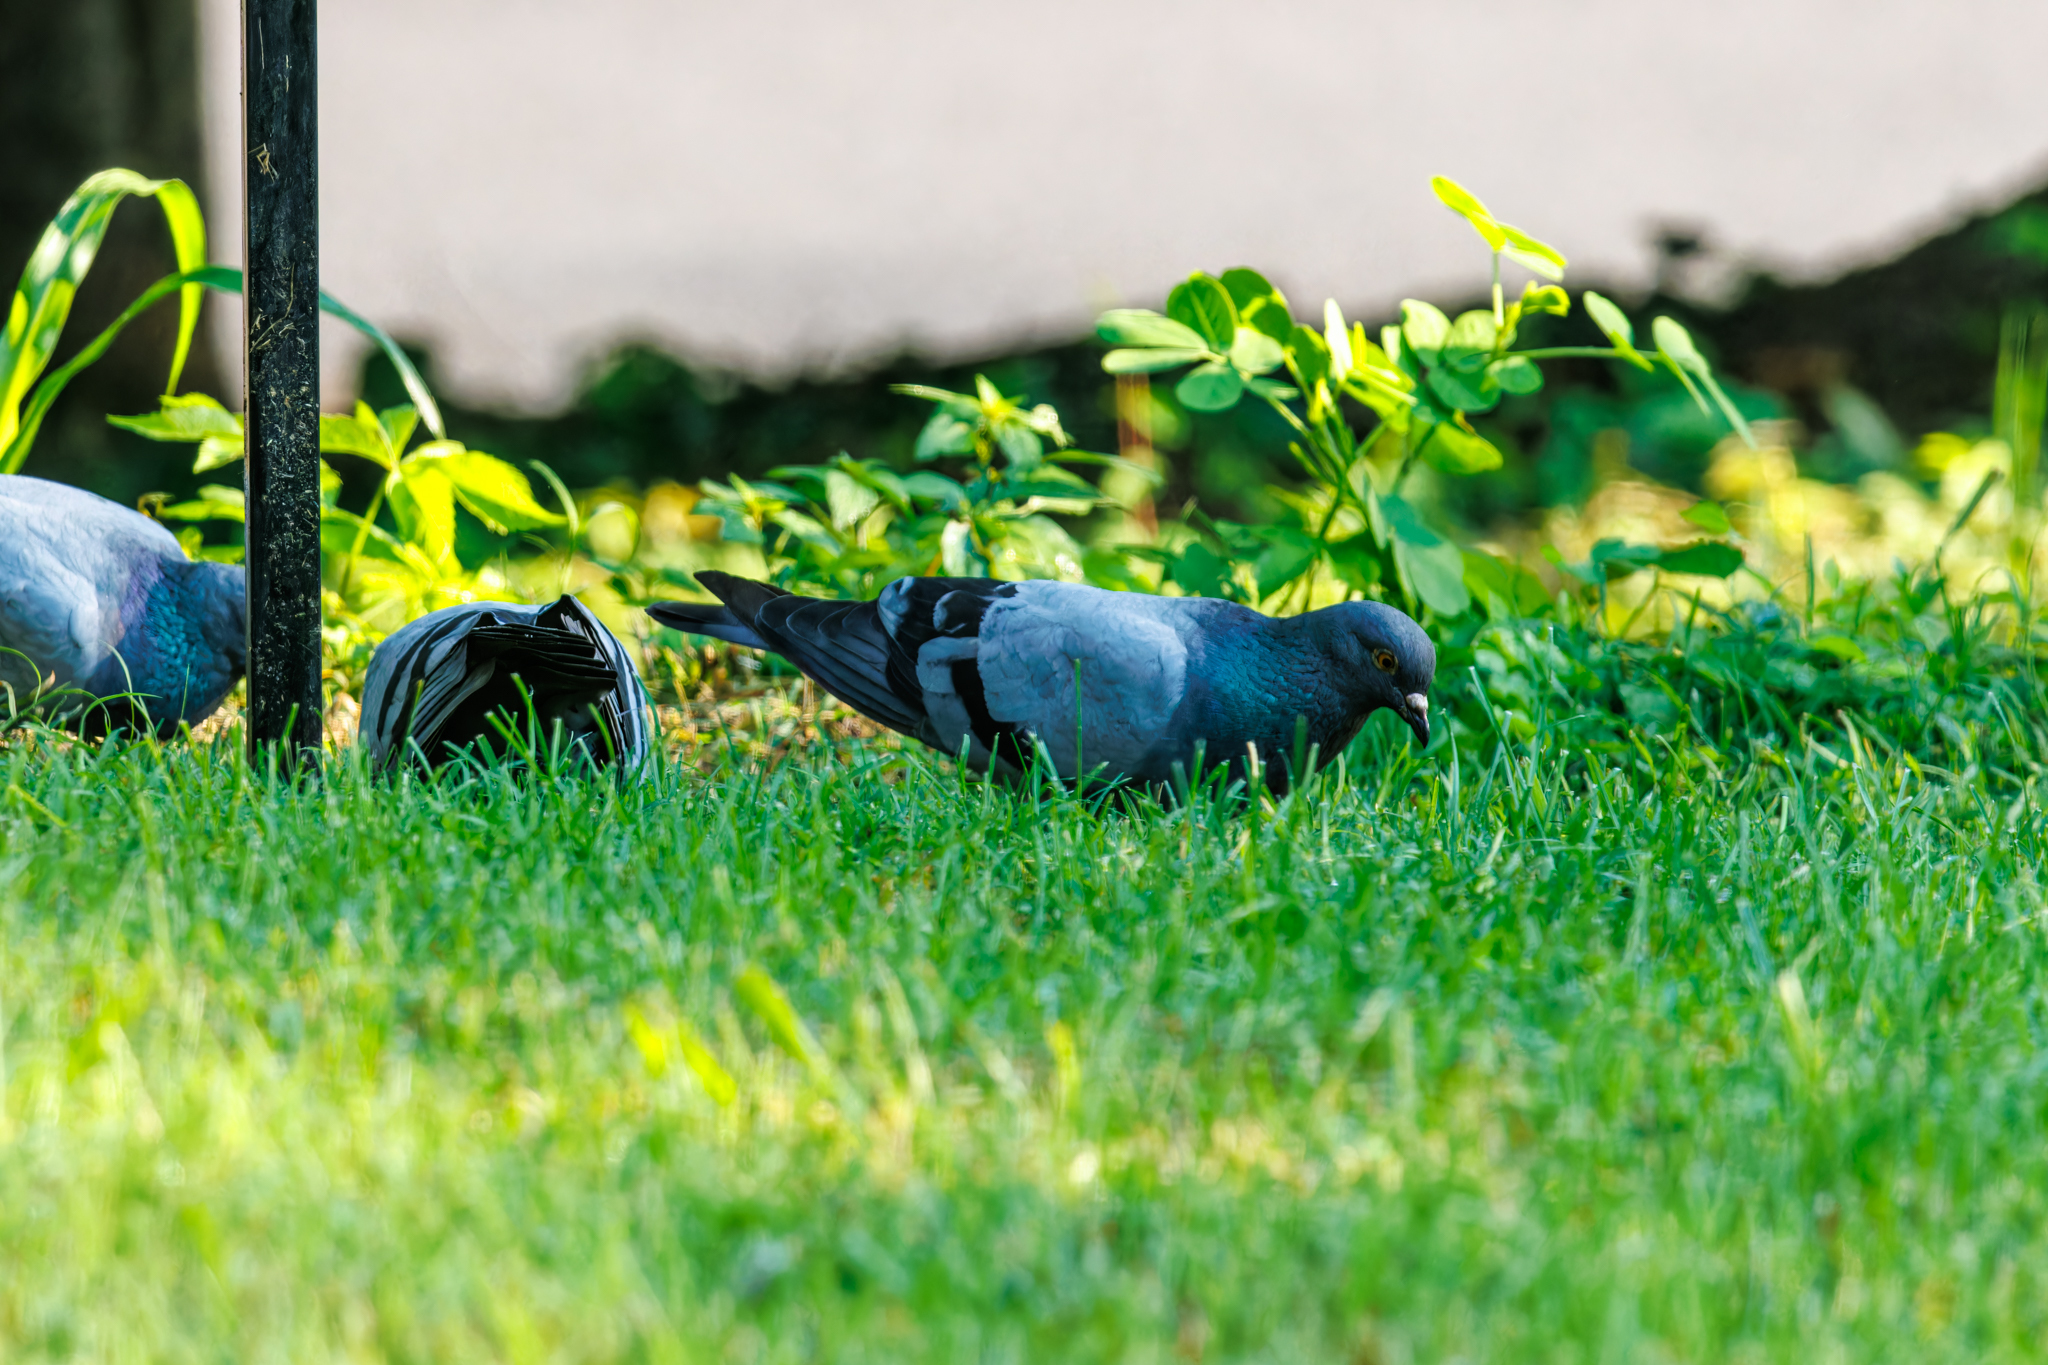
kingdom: Animalia
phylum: Chordata
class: Aves
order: Columbiformes
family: Columbidae
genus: Columba
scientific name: Columba livia
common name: Rock pigeon
